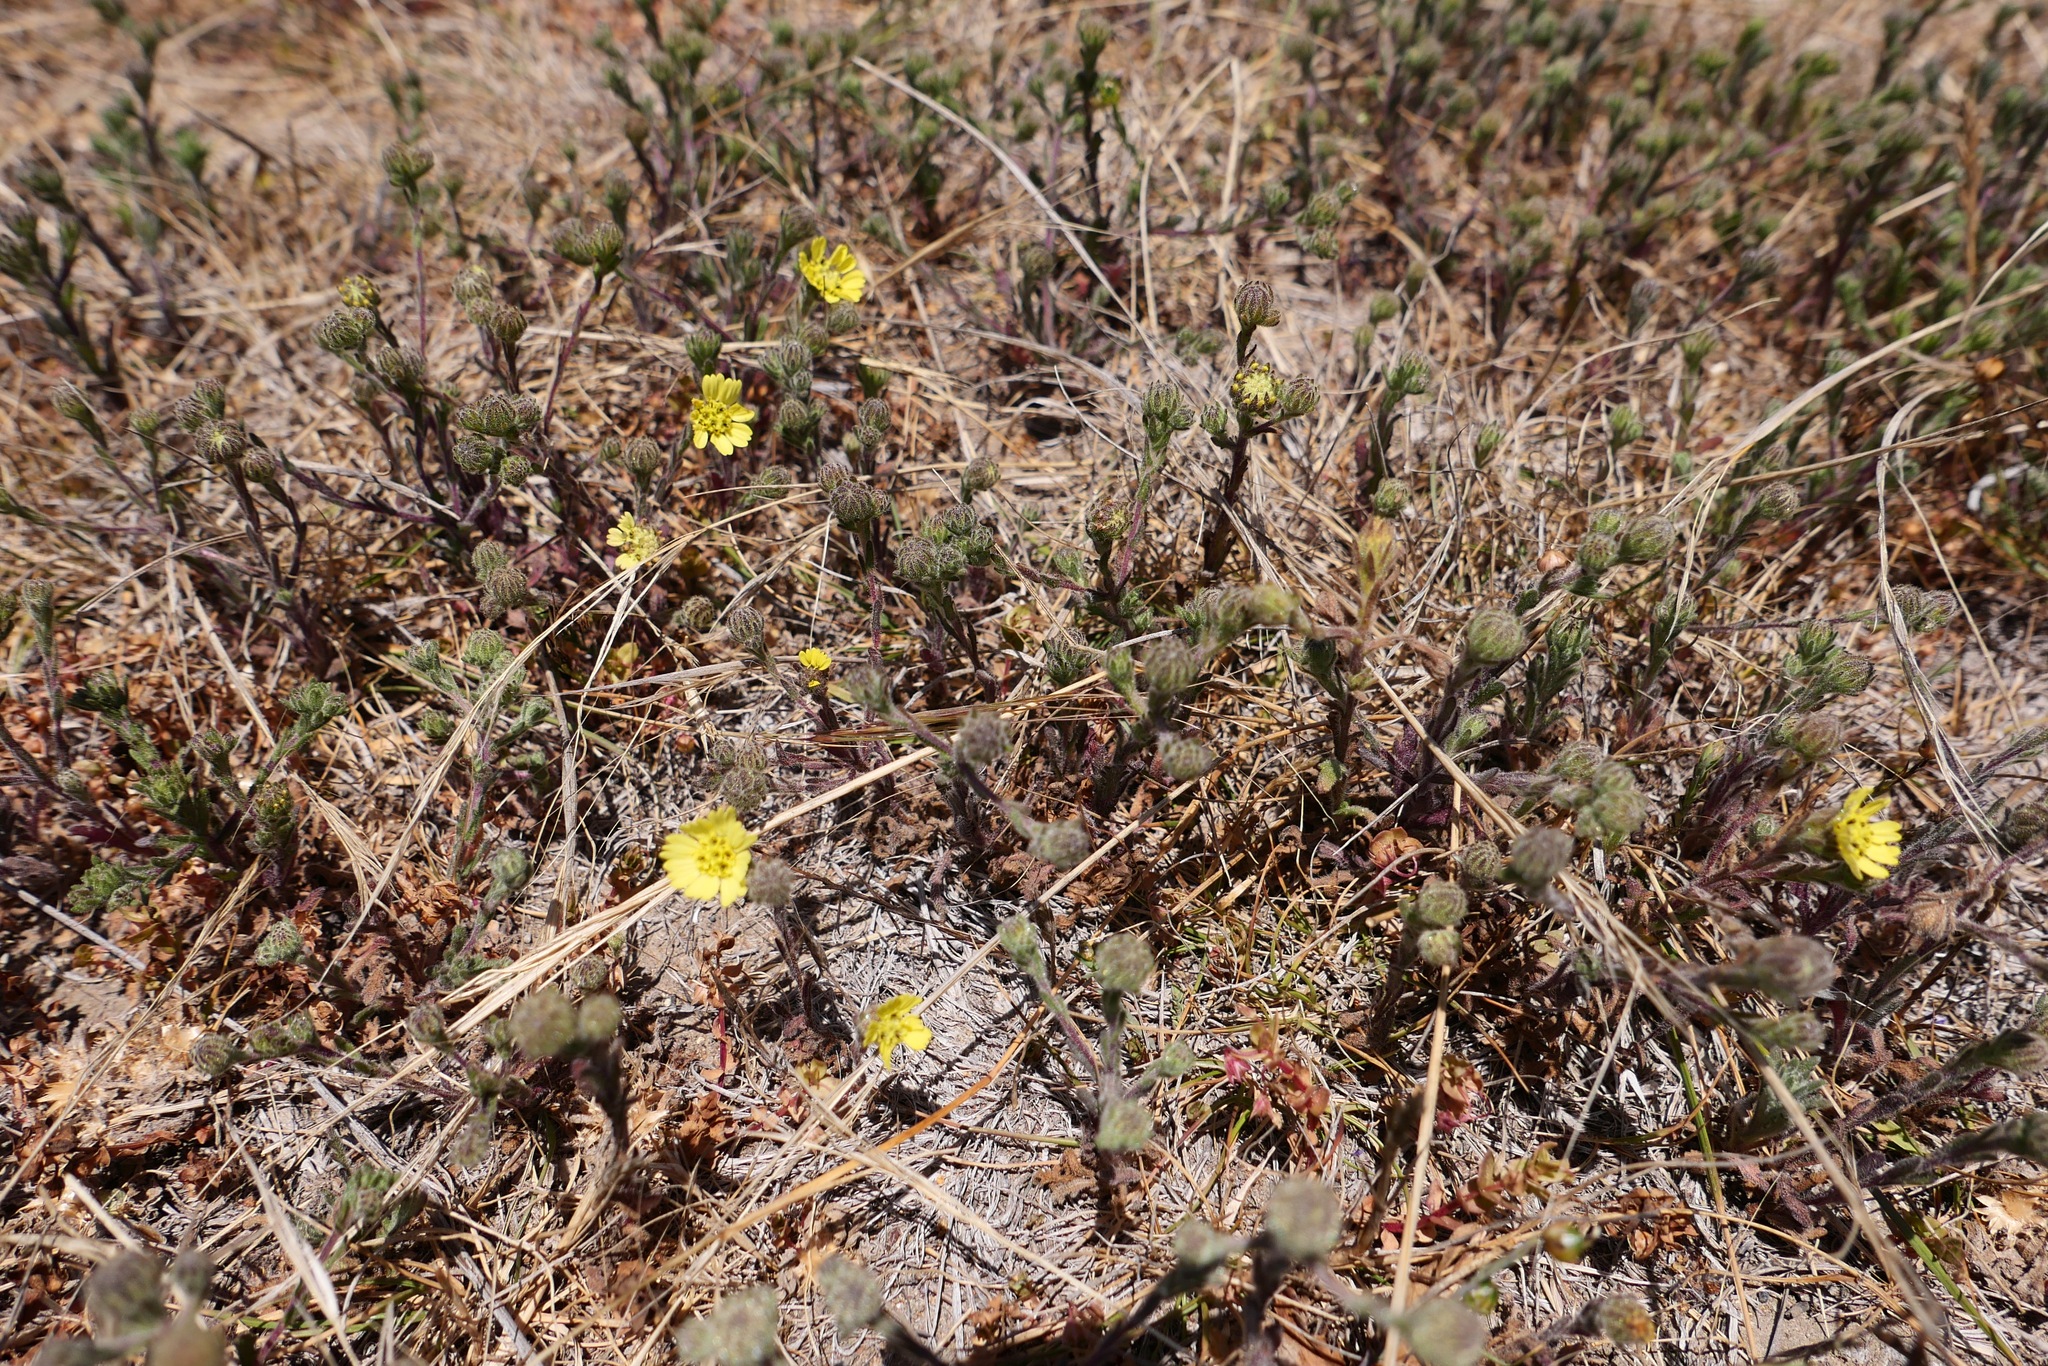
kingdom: Plantae
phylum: Tracheophyta
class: Magnoliopsida
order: Asterales
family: Asteraceae
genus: Deinandra
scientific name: Deinandra increscens
